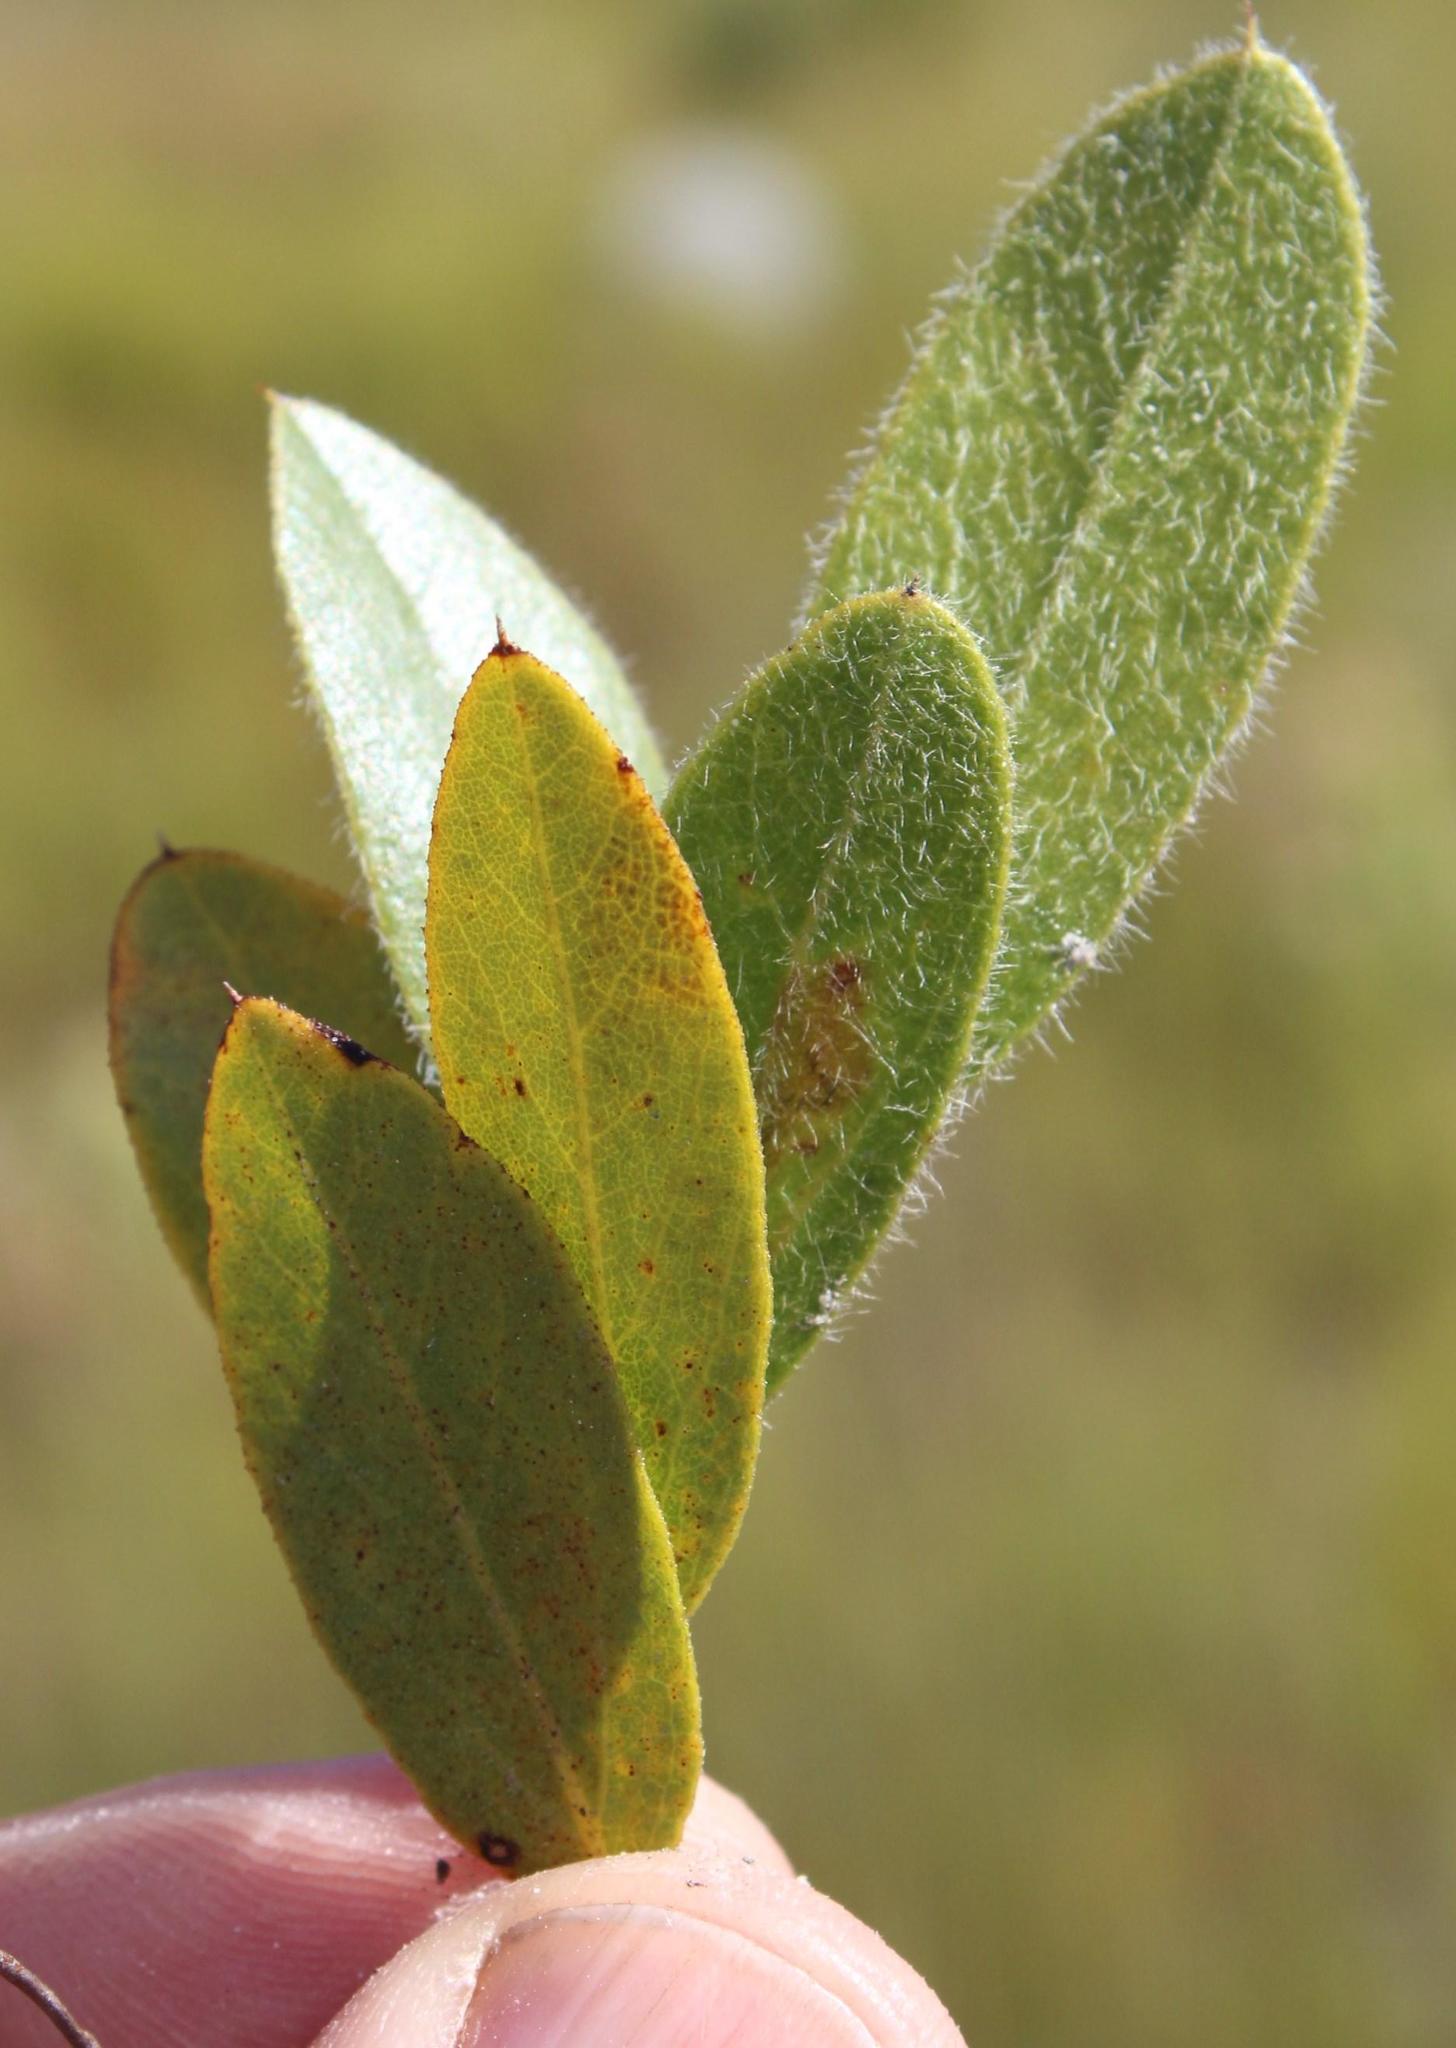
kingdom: Plantae
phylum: Tracheophyta
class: Magnoliopsida
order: Fabales
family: Fabaceae
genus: Psoralea
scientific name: Psoralea rotundifolia
